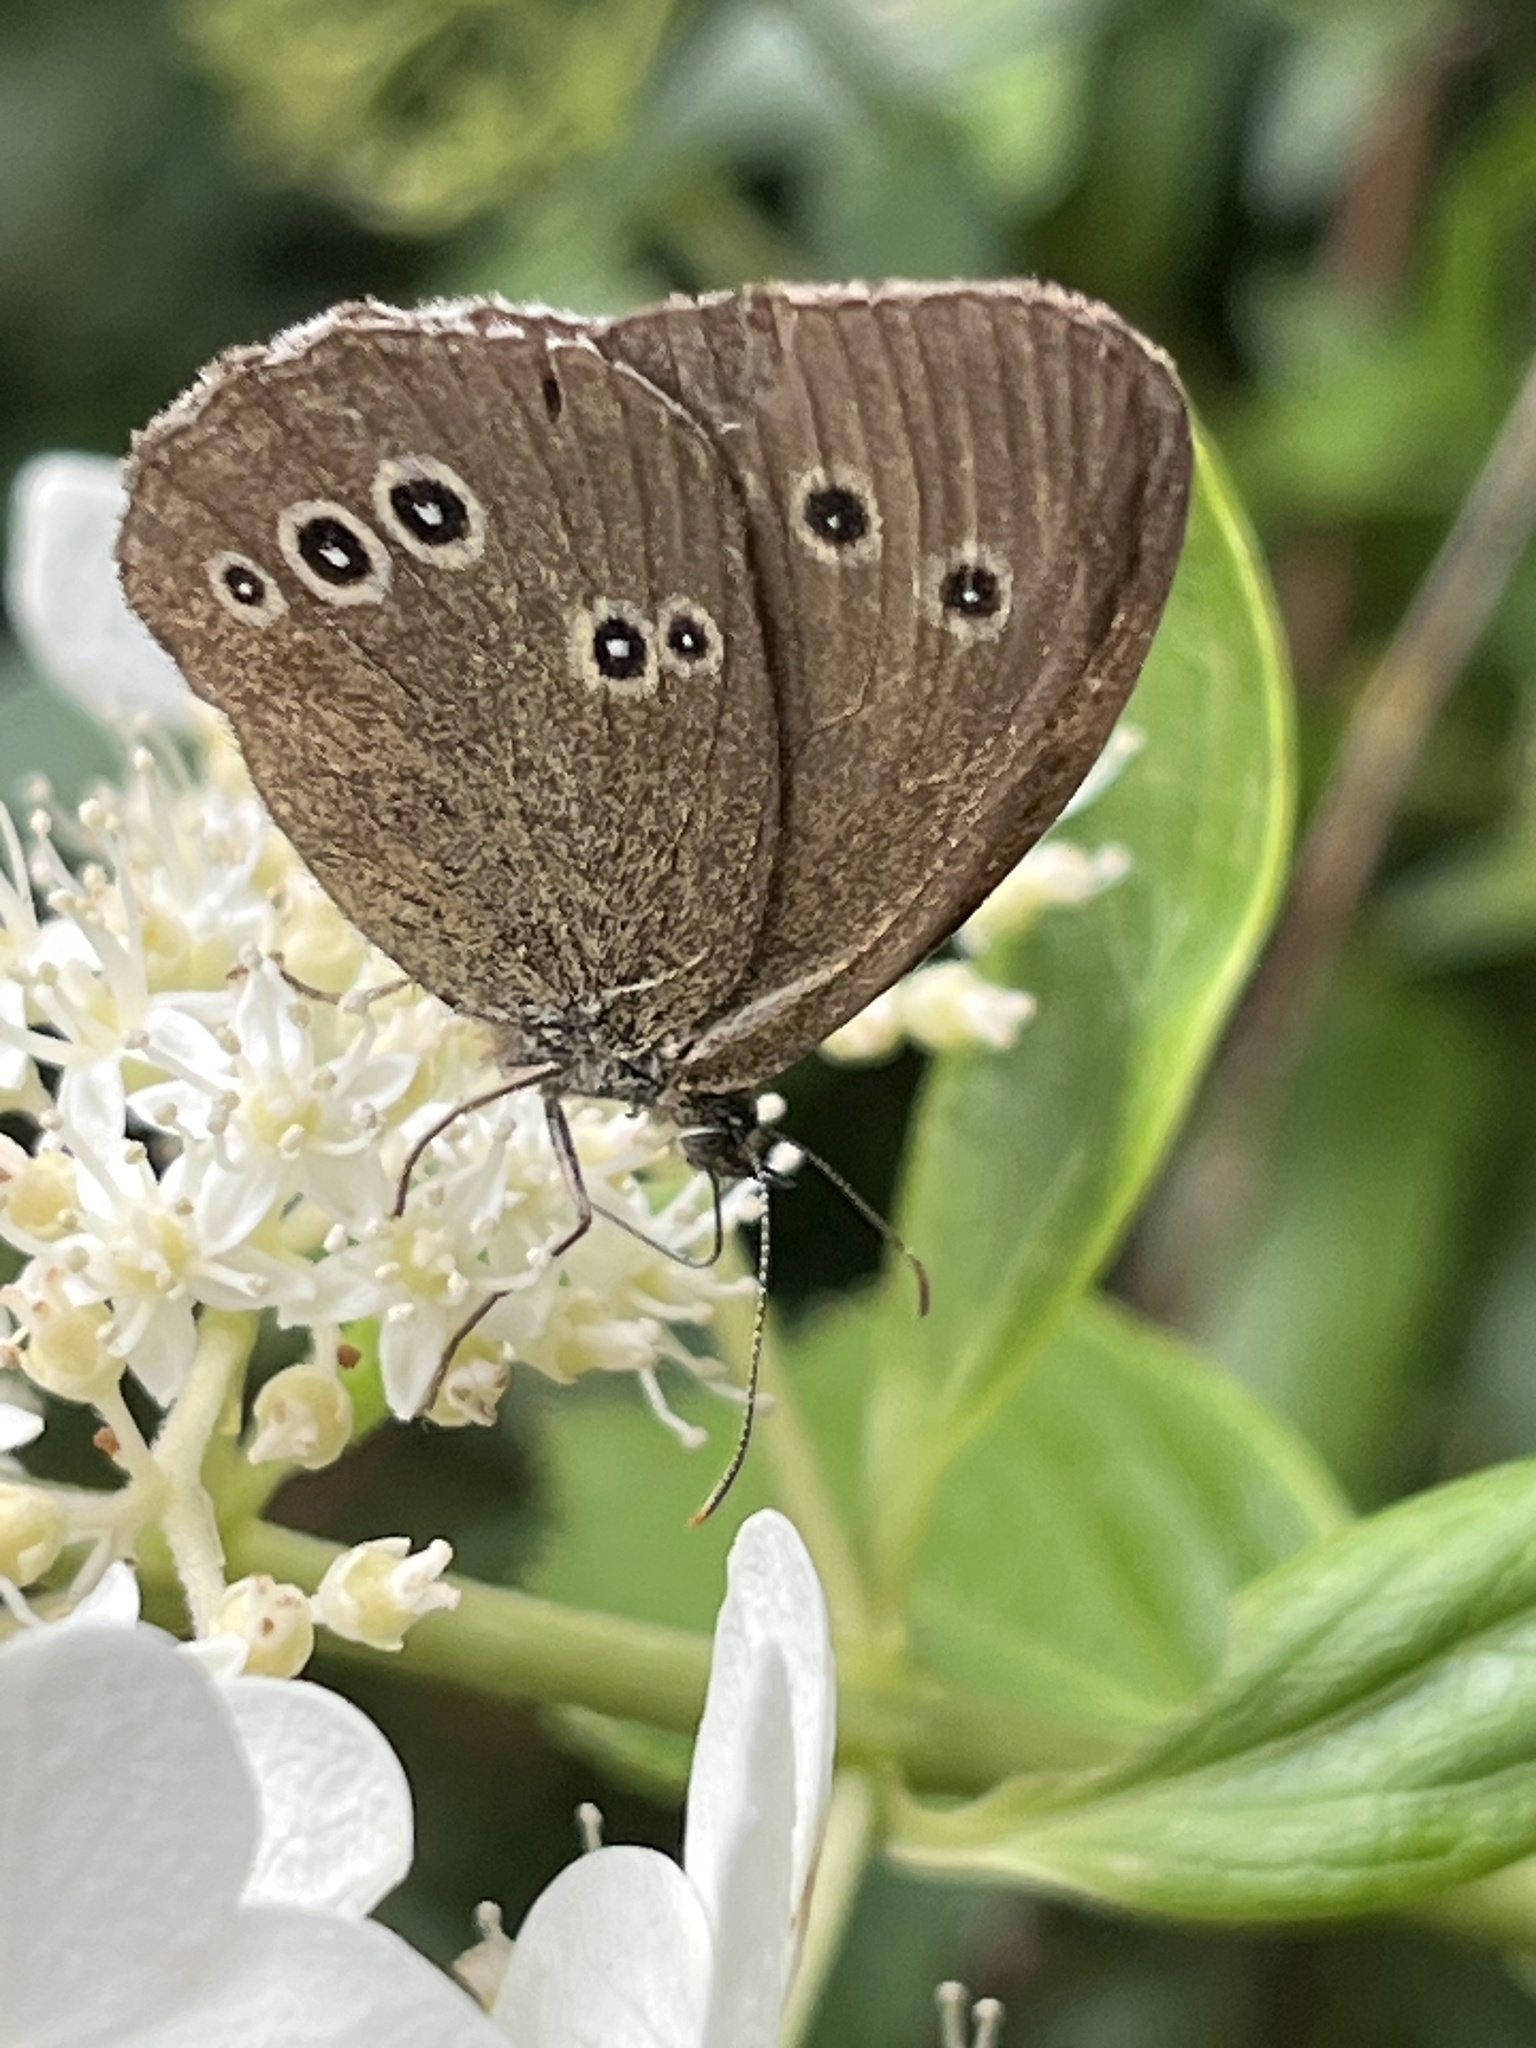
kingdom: Animalia
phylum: Arthropoda
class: Insecta
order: Lepidoptera
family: Nymphalidae
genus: Aphantopus
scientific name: Aphantopus hyperantus
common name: Ringlet
